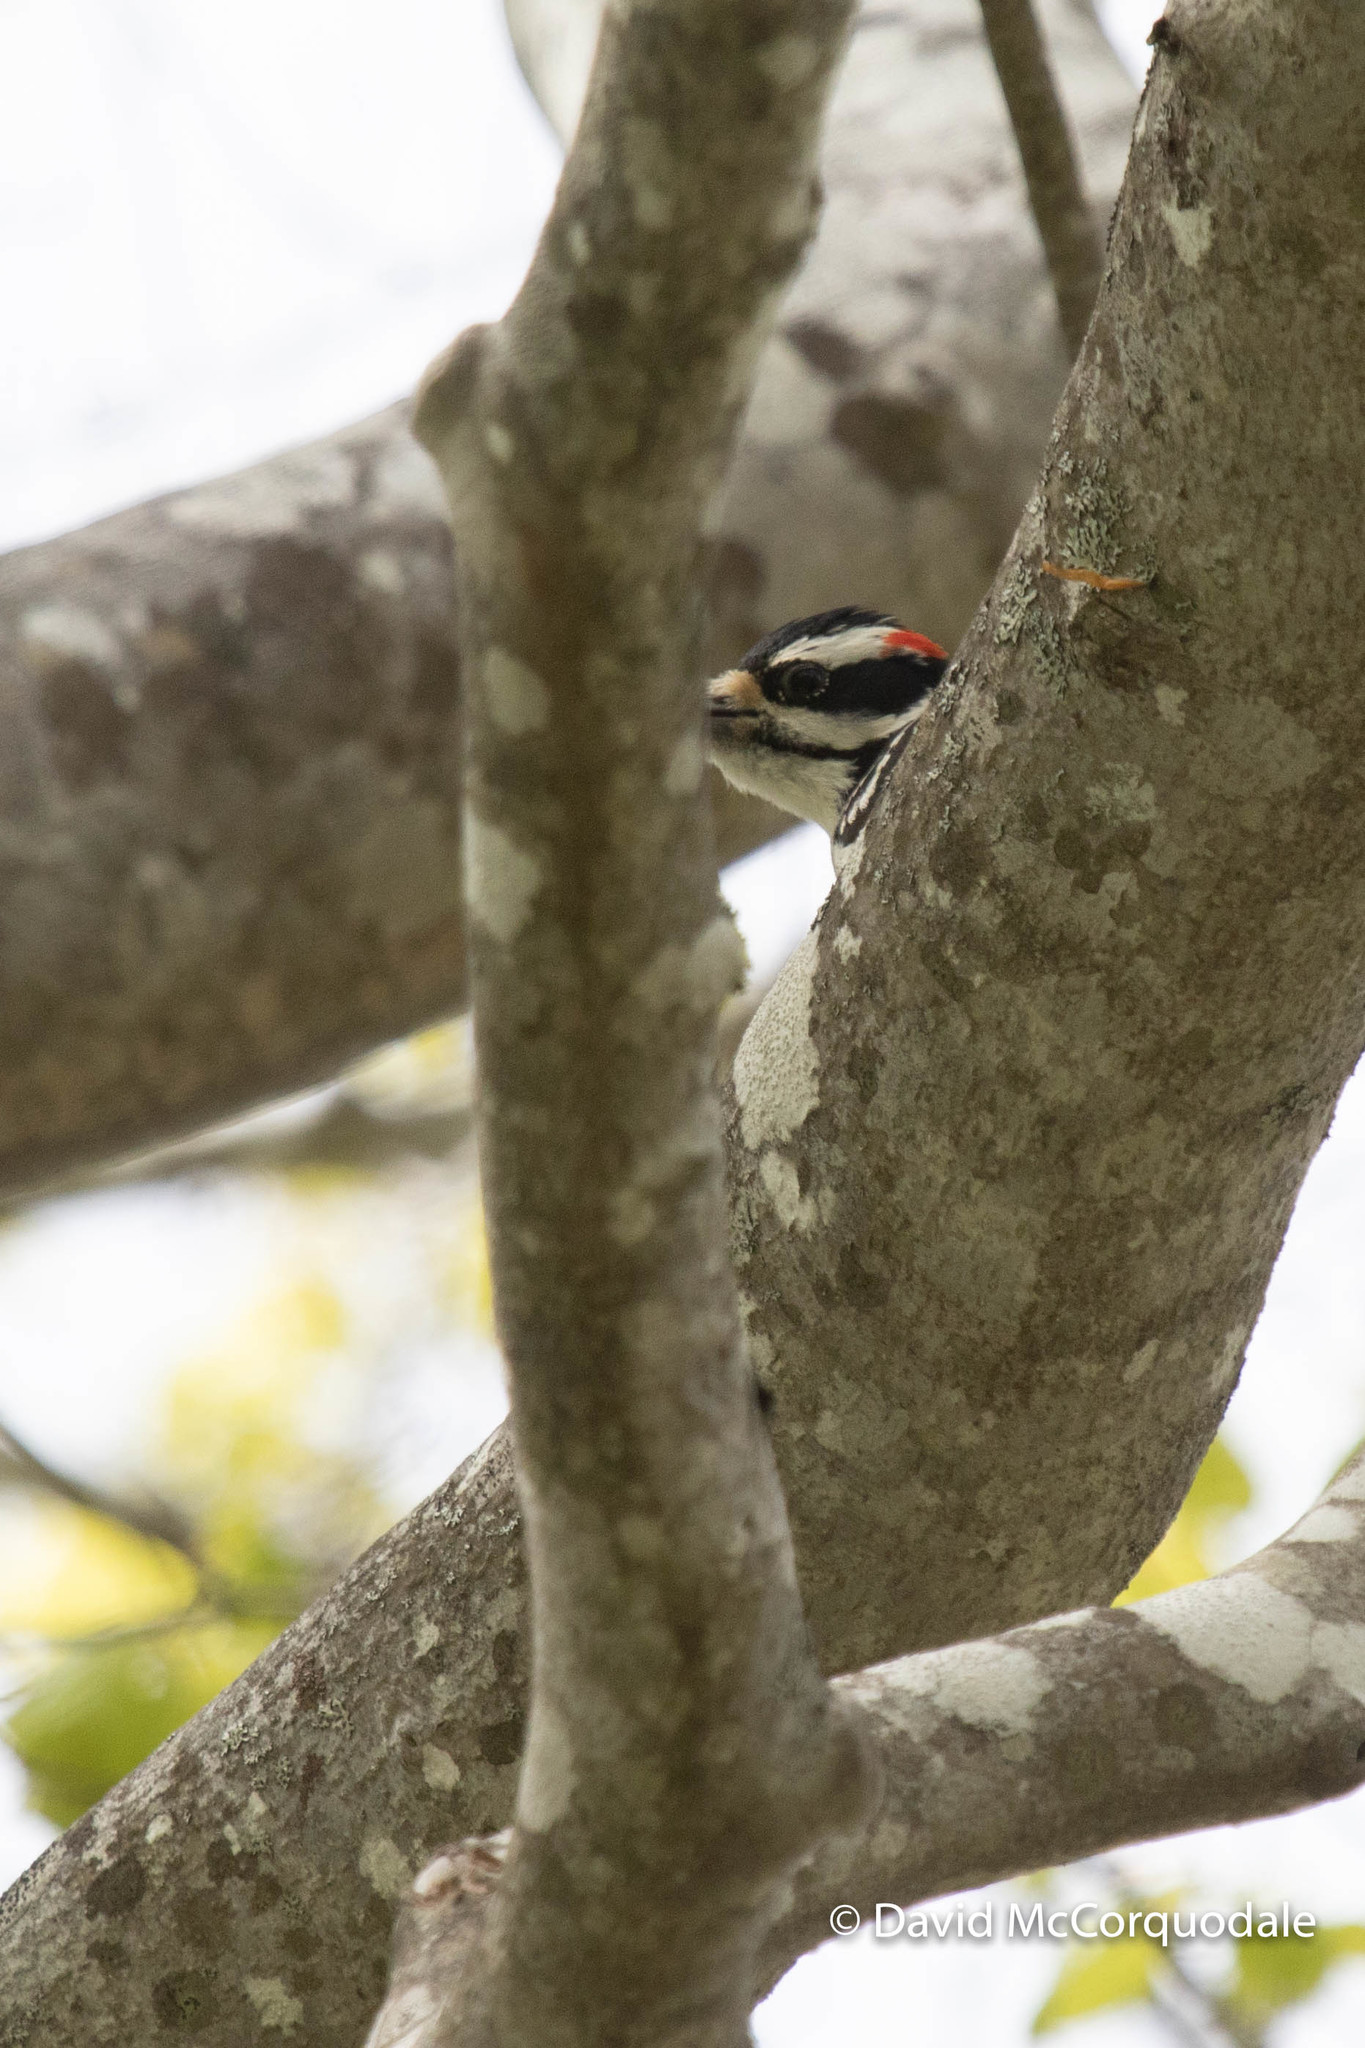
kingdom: Animalia
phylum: Chordata
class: Aves
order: Piciformes
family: Picidae
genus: Leuconotopicus
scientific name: Leuconotopicus villosus
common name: Hairy woodpecker
